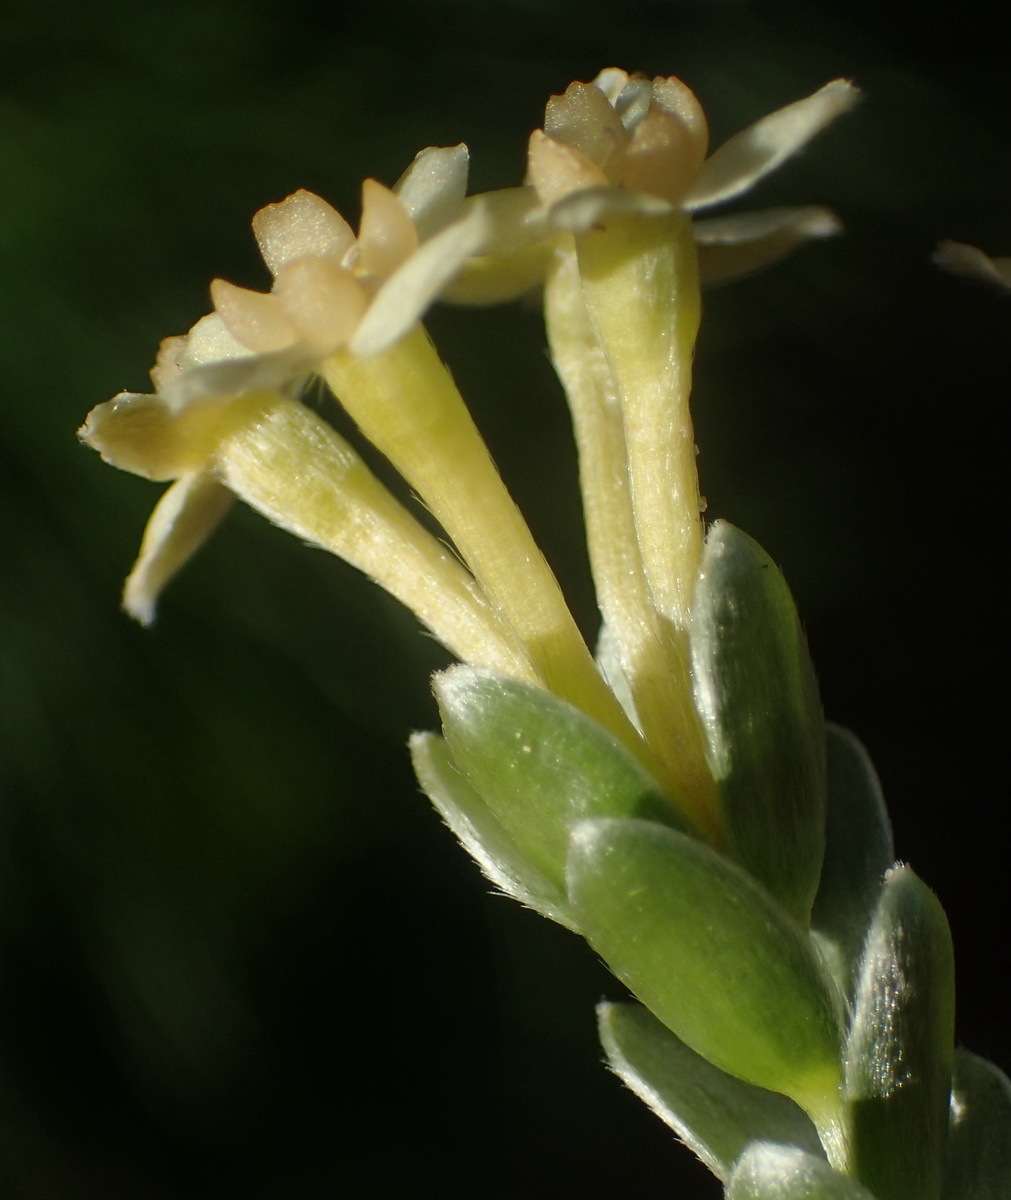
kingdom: Plantae
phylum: Tracheophyta
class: Magnoliopsida
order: Malvales
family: Thymelaeaceae
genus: Gnidia
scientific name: Gnidia chrysophylla
